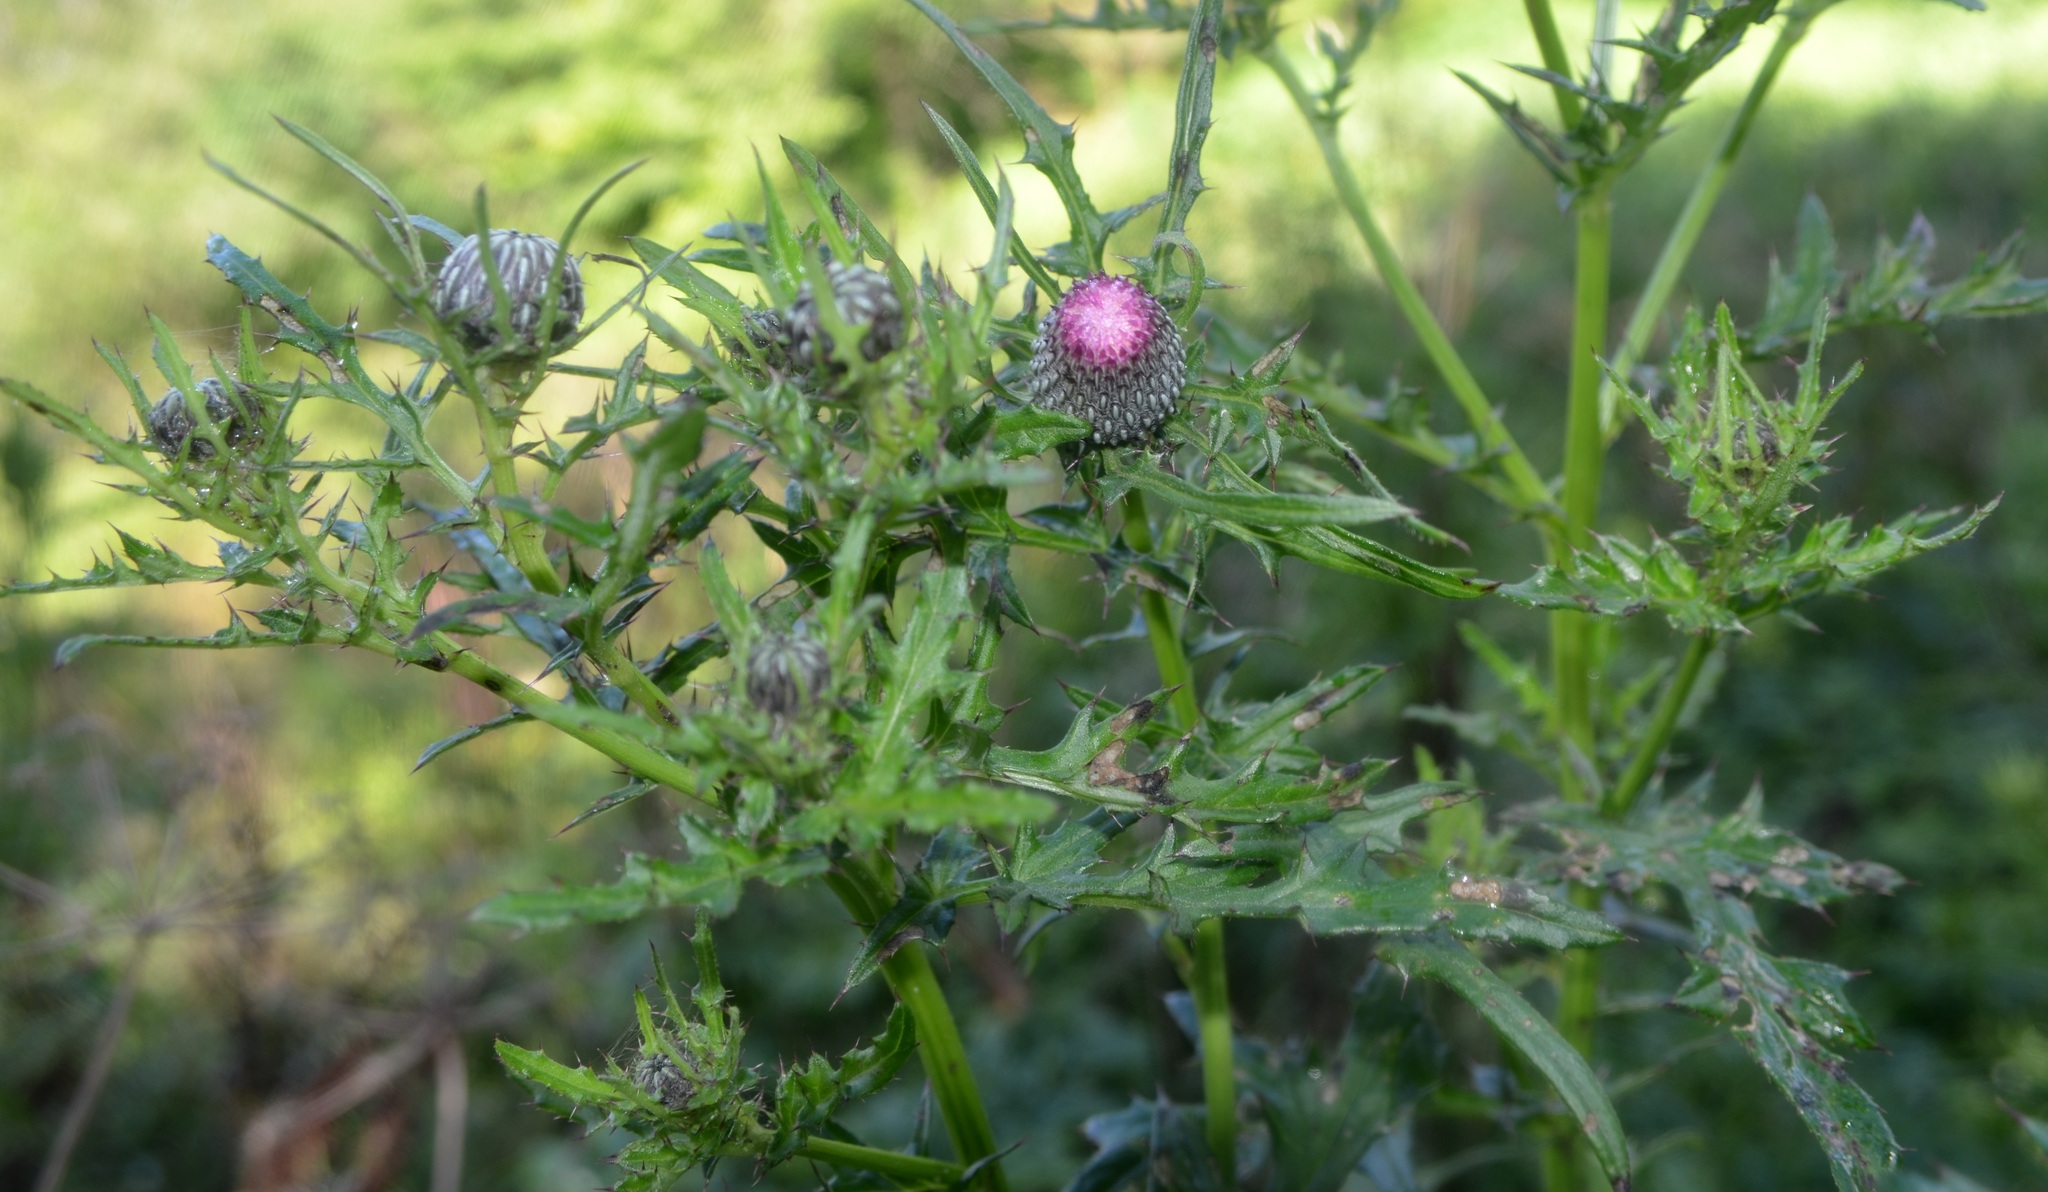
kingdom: Plantae
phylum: Tracheophyta
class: Magnoliopsida
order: Asterales
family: Asteraceae
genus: Cirsium
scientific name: Cirsium muticum
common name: Dunce-nettle
